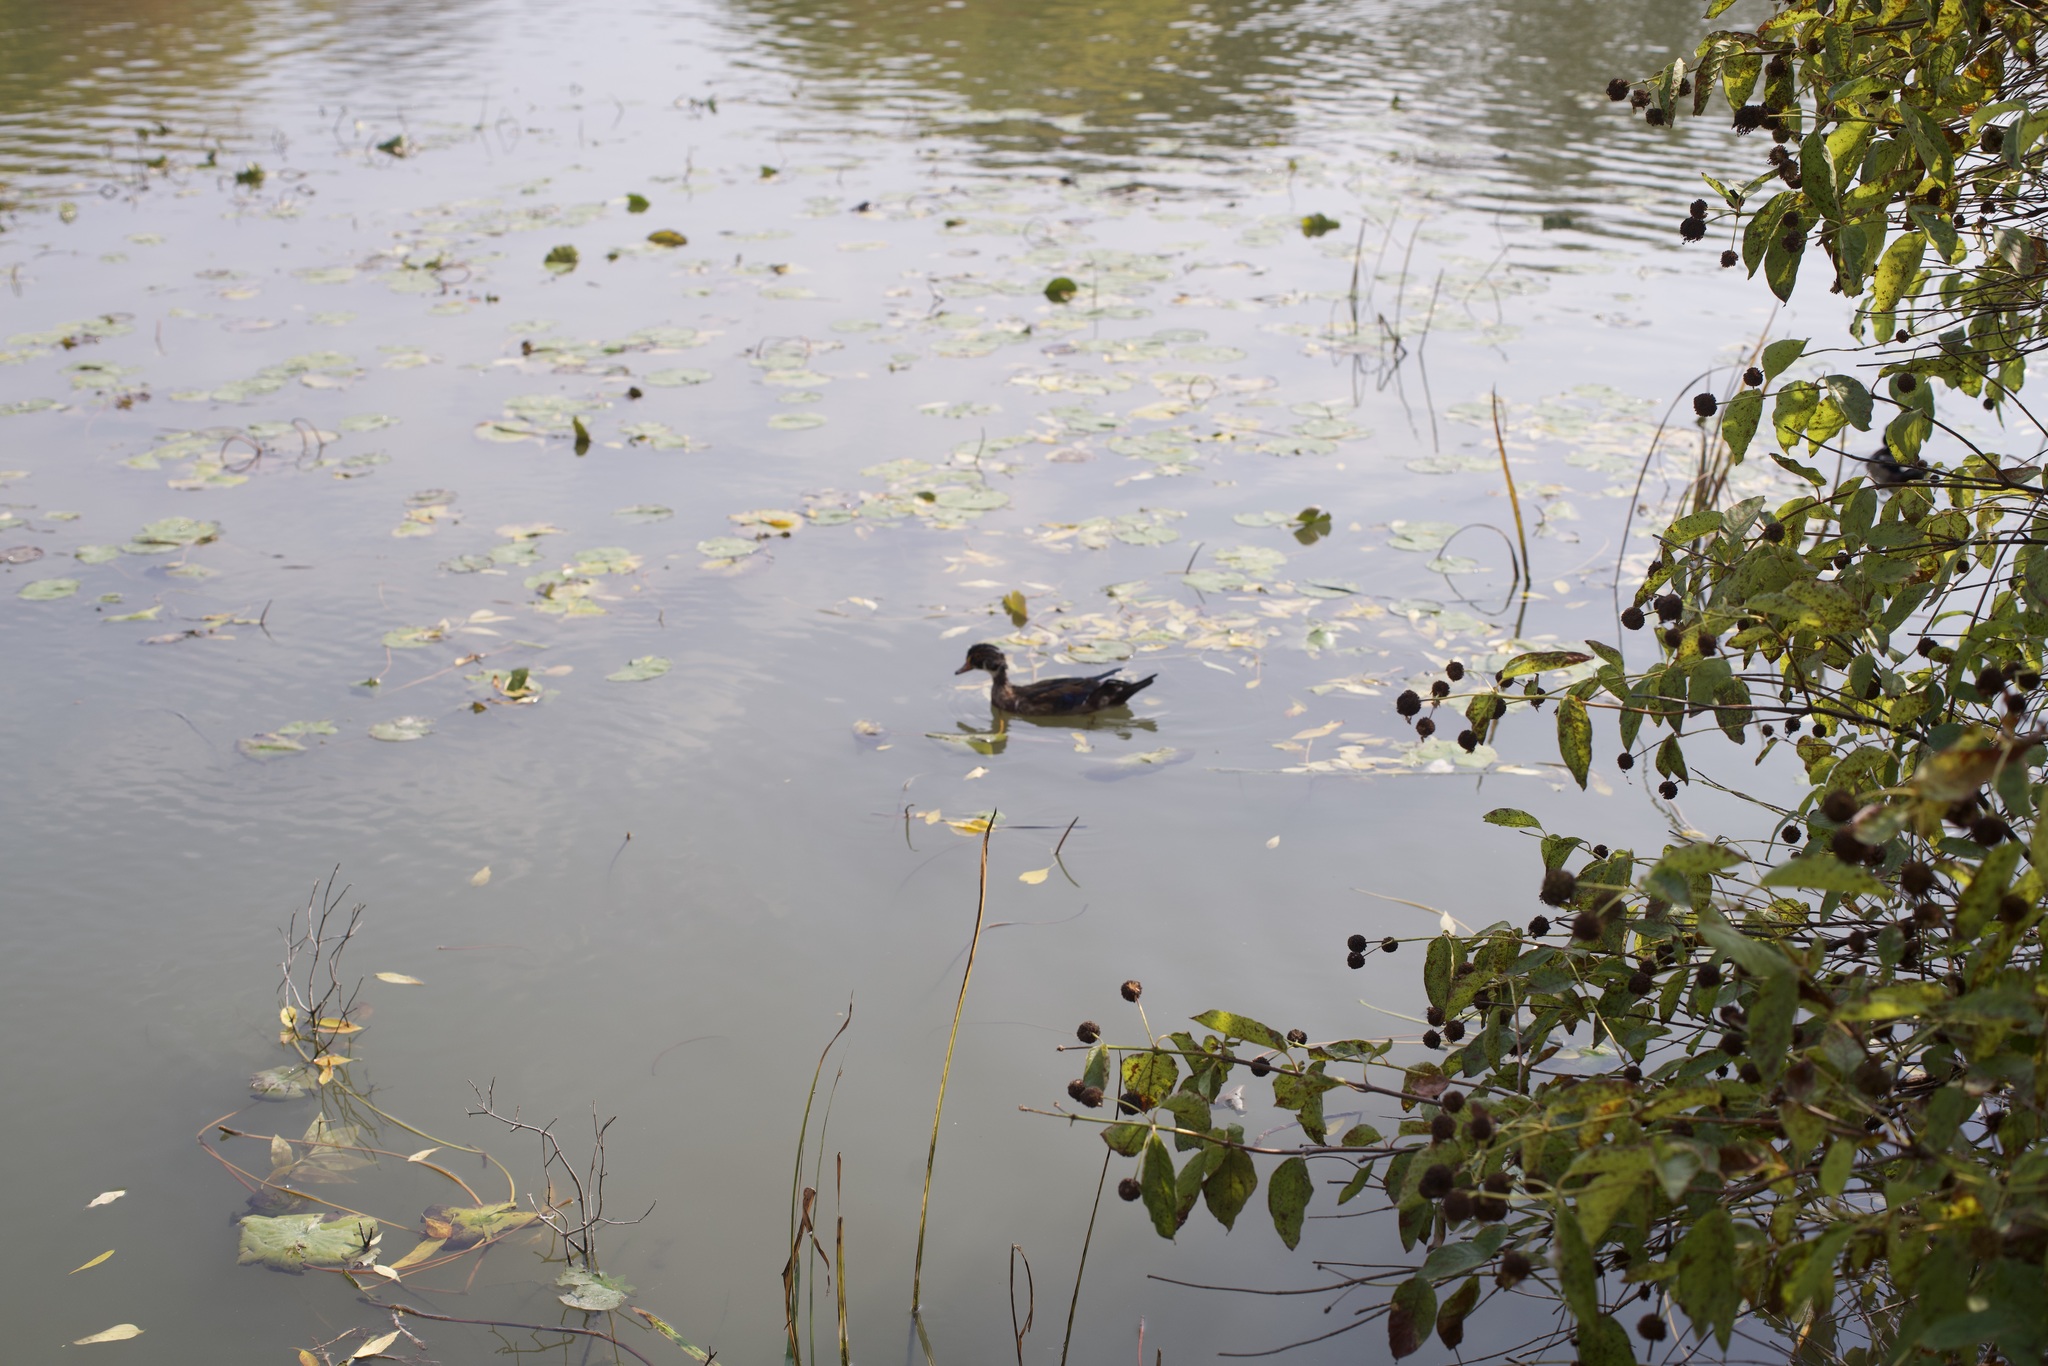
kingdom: Animalia
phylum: Chordata
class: Aves
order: Anseriformes
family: Anatidae
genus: Aix
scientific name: Aix sponsa
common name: Wood duck
